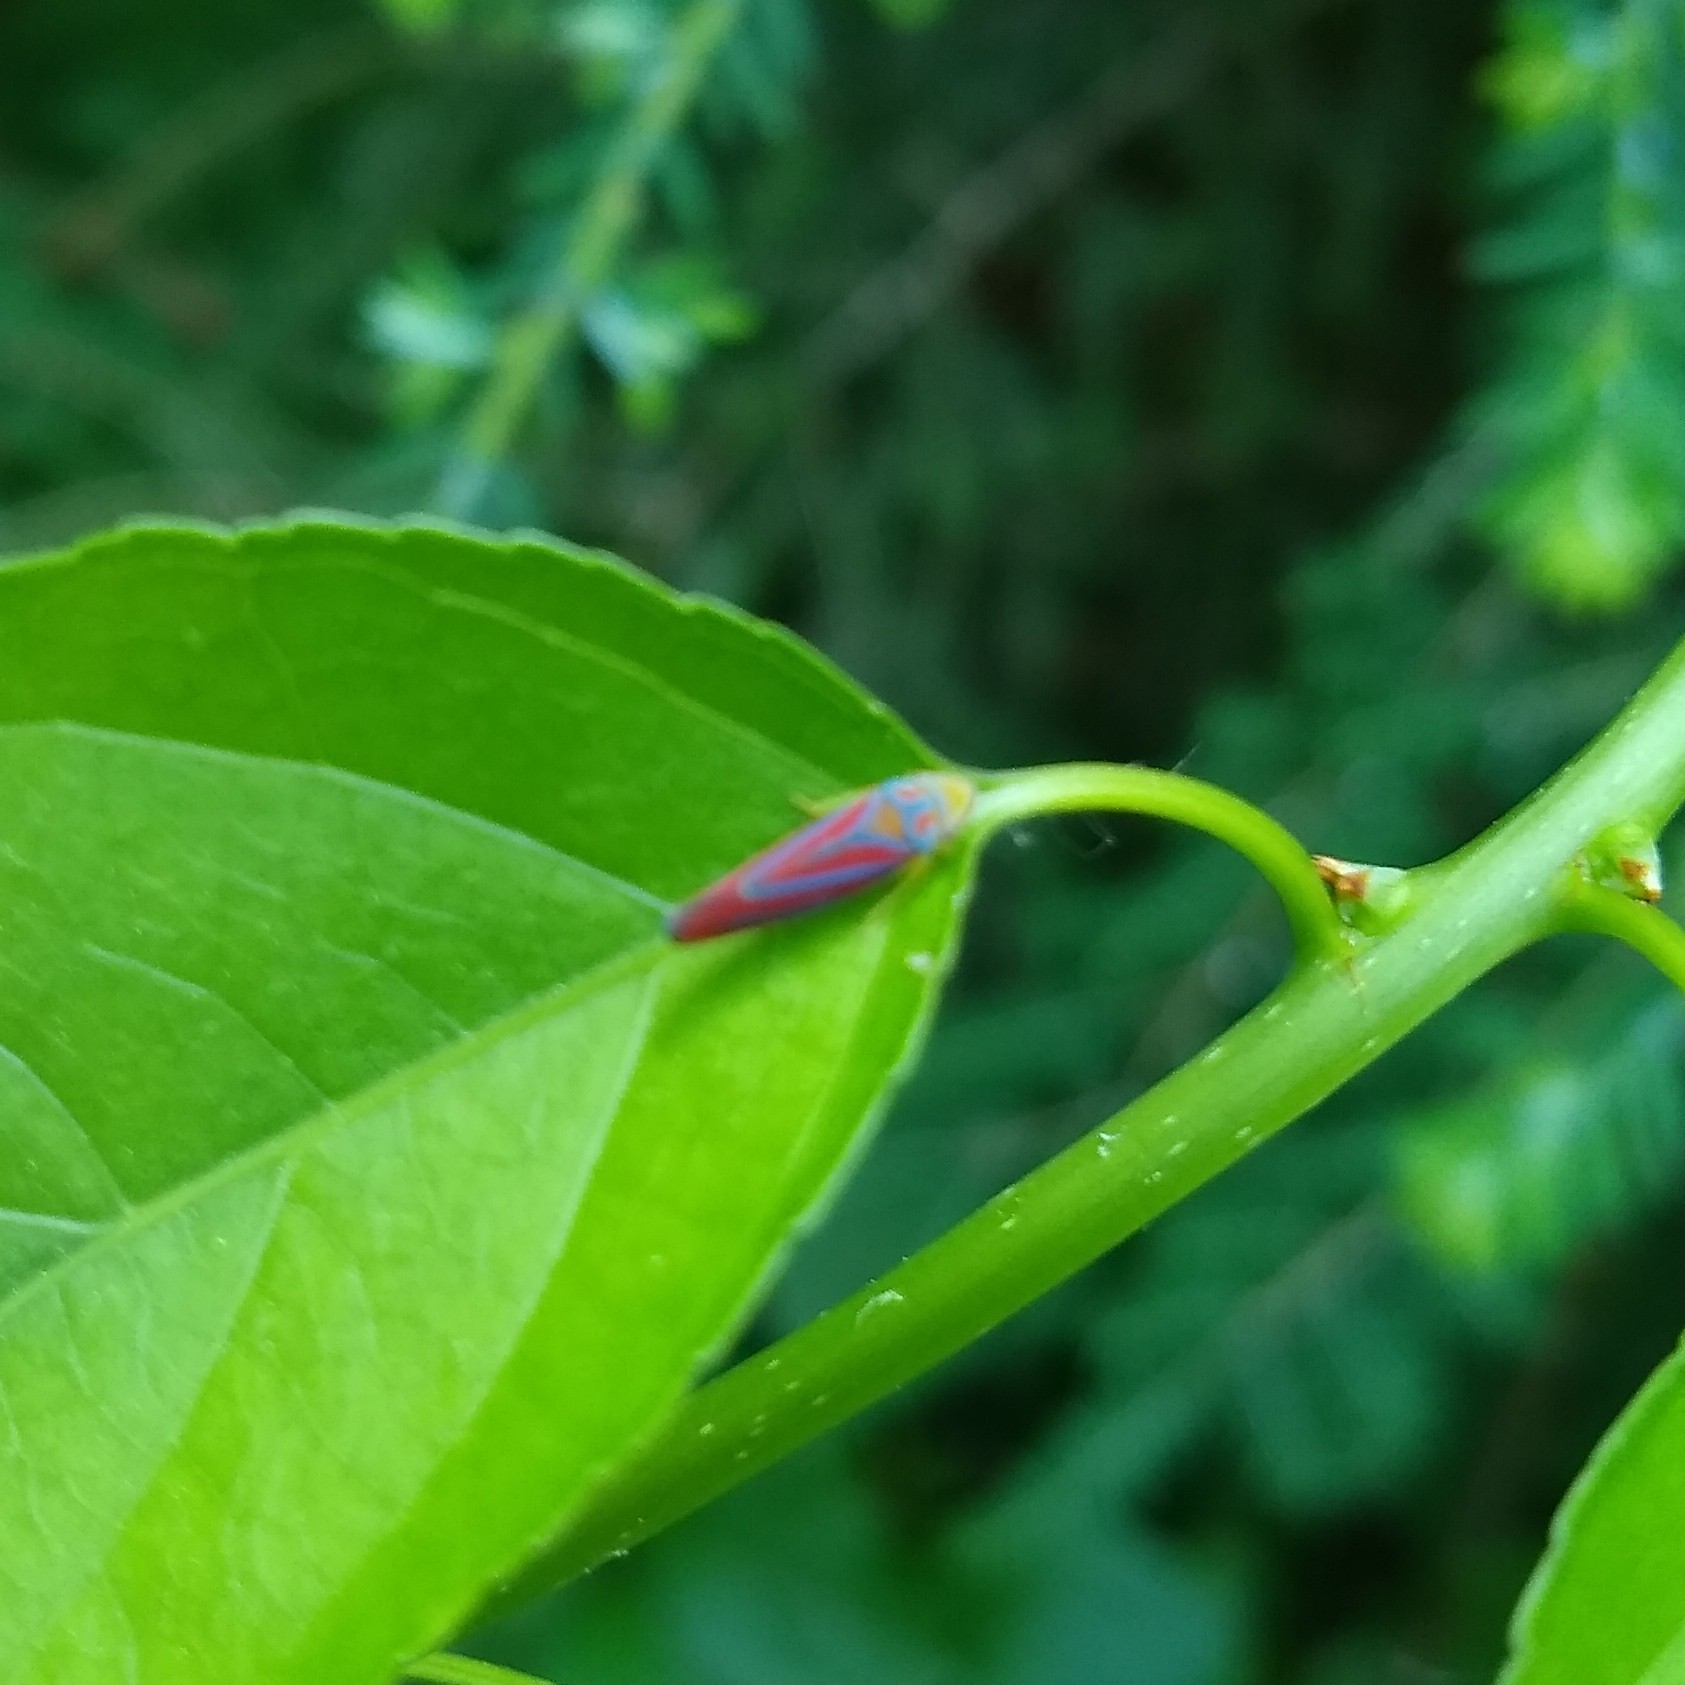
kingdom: Animalia
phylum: Arthropoda
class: Insecta
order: Hemiptera
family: Cicadellidae
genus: Graphocephala
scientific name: Graphocephala coccinea
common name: Candy-striped leafhopper
